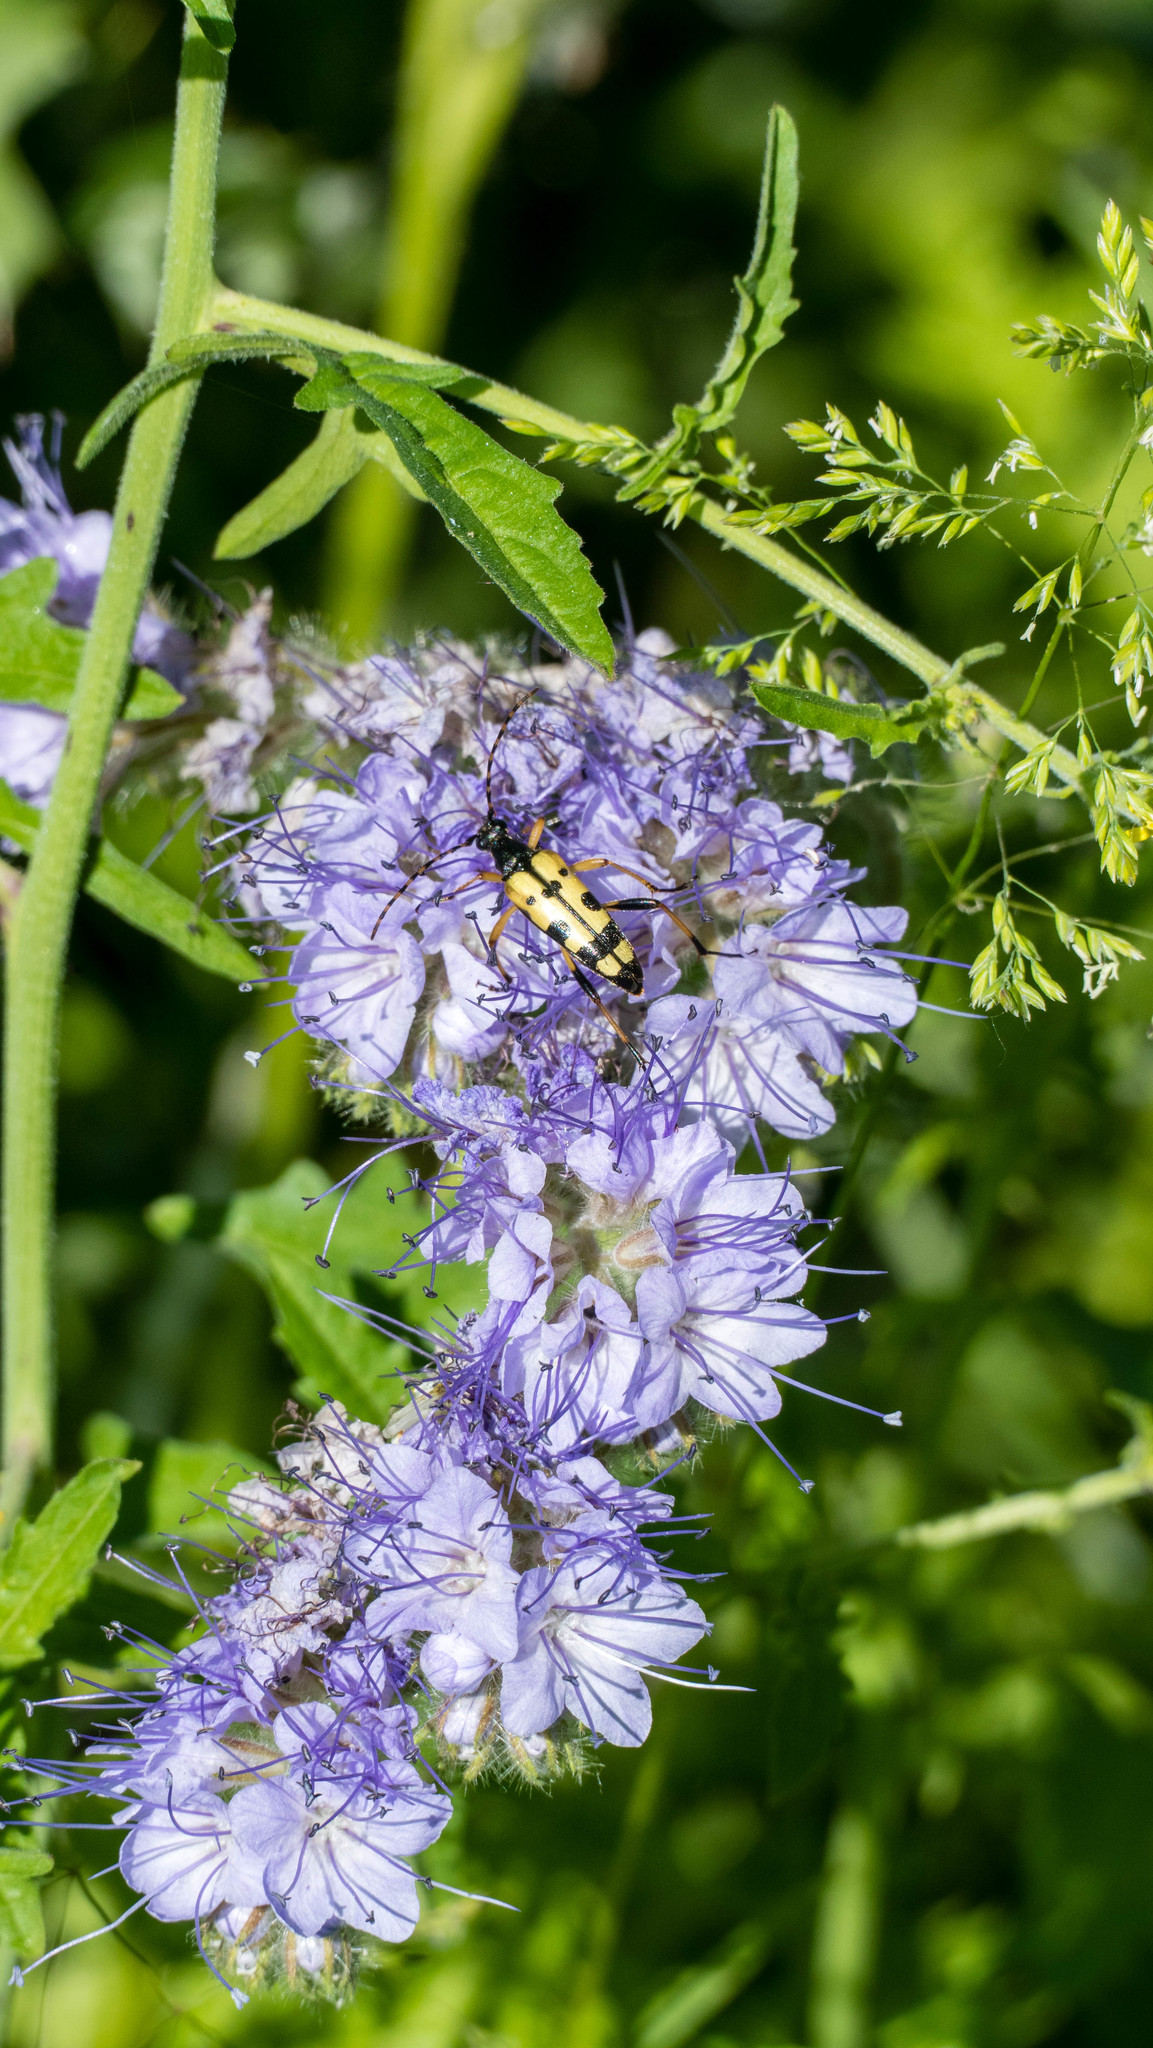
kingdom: Plantae
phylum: Tracheophyta
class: Magnoliopsida
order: Boraginales
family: Hydrophyllaceae
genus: Phacelia
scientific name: Phacelia tanacetifolia
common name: Phacelia
